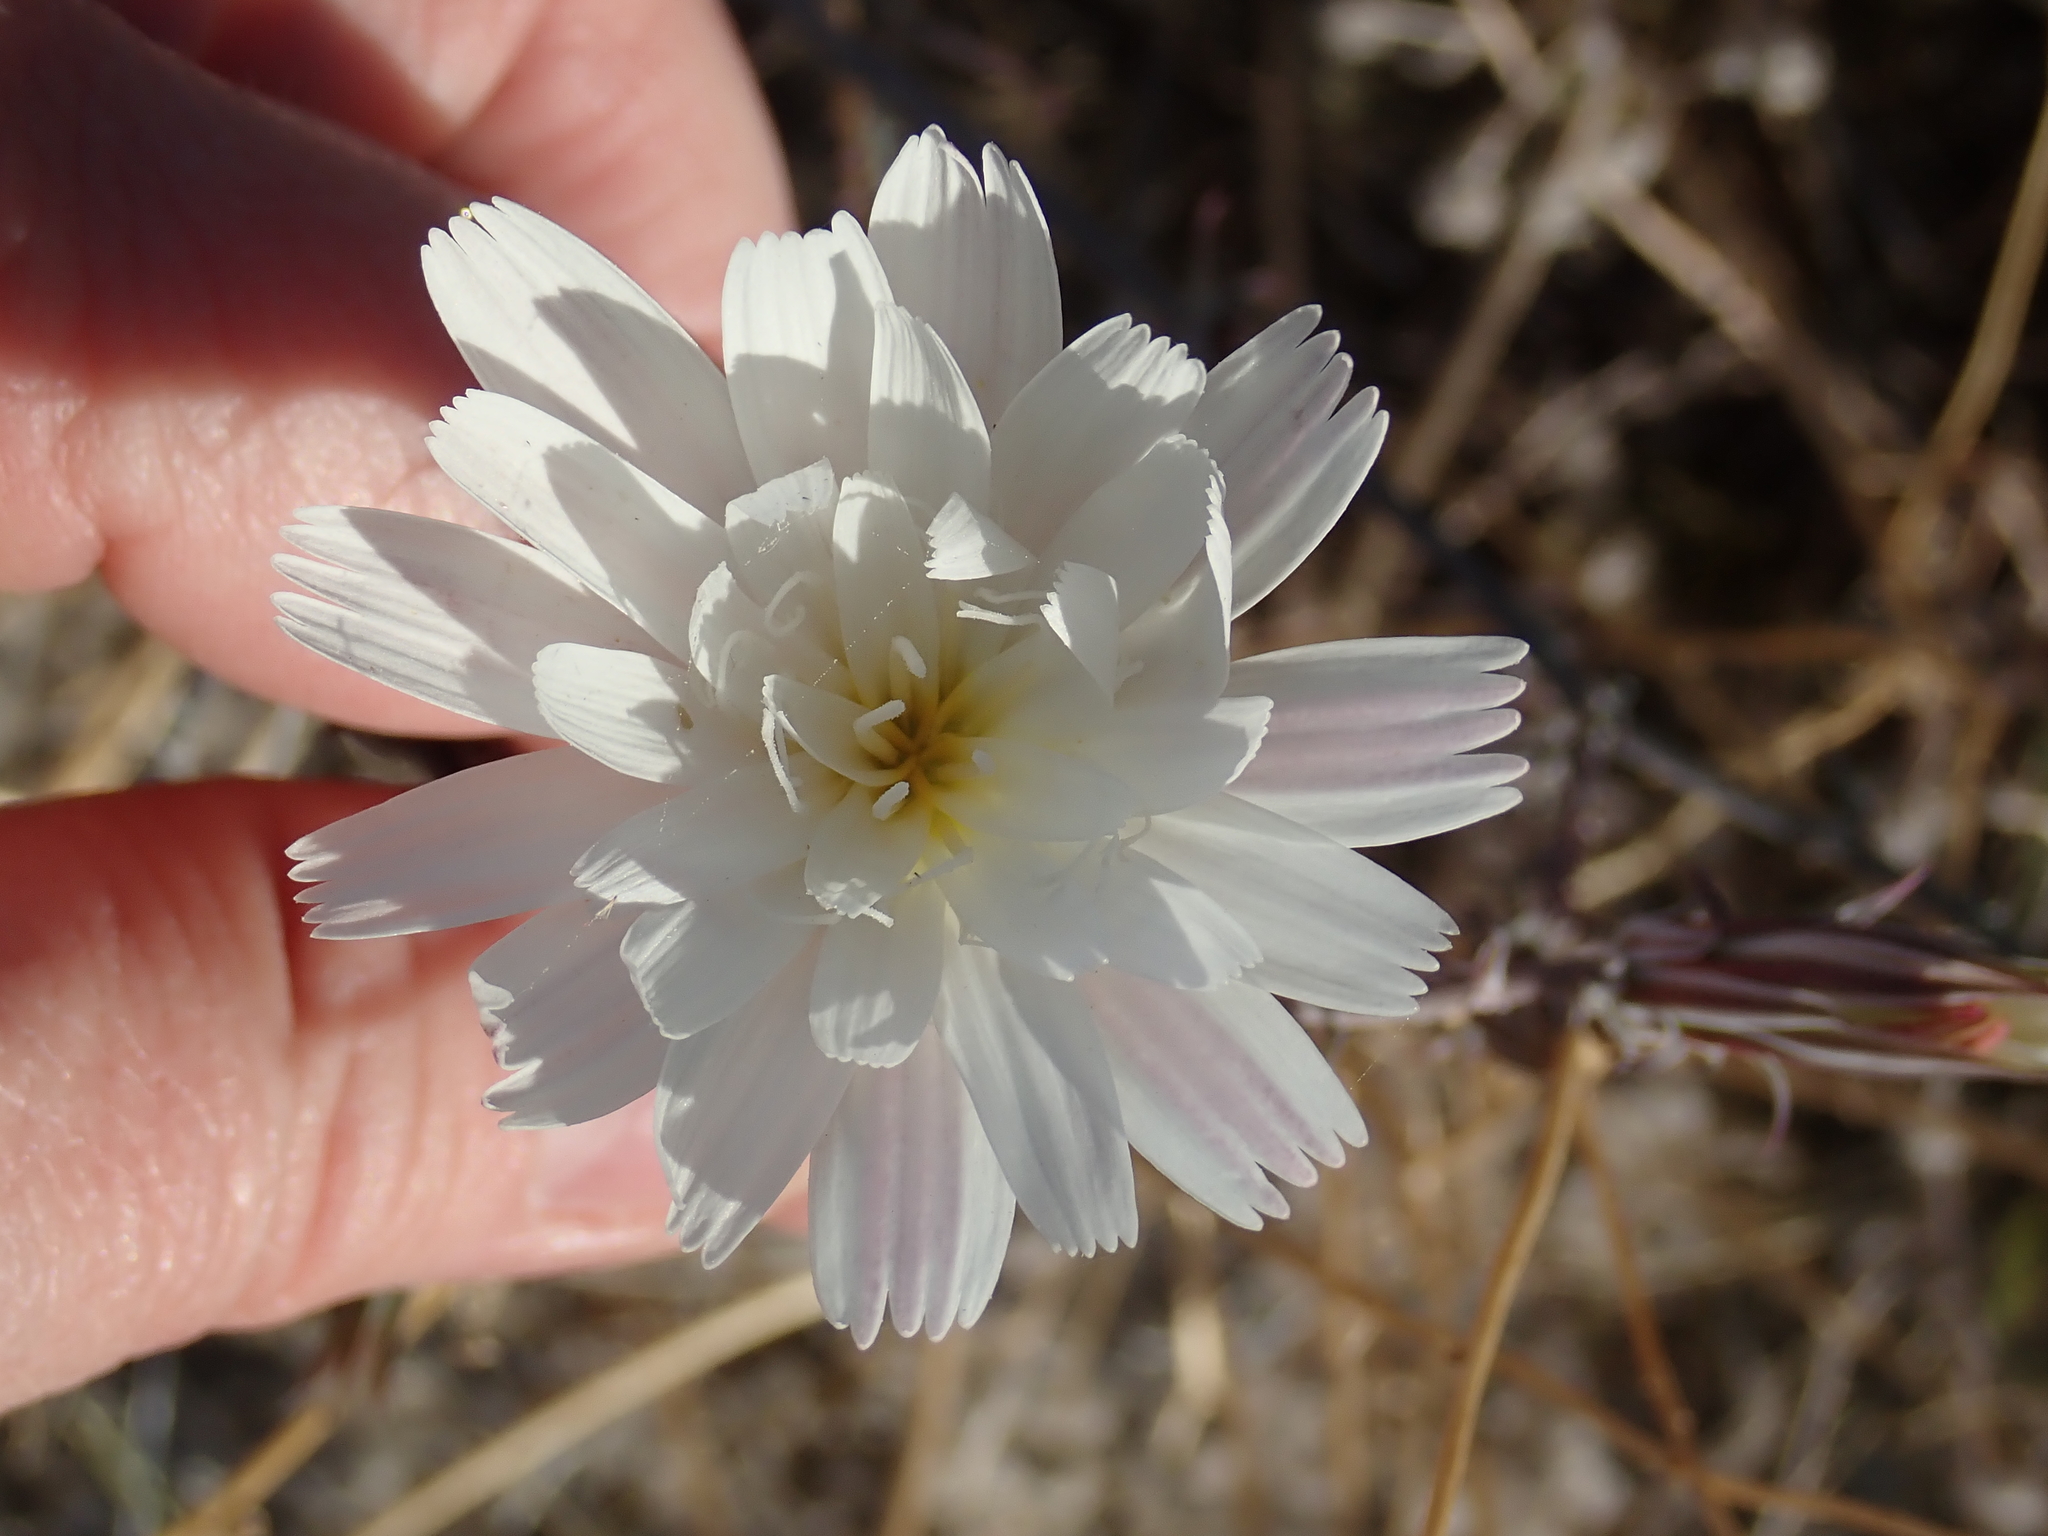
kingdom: Plantae
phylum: Tracheophyta
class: Magnoliopsida
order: Asterales
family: Asteraceae
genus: Rafinesquia
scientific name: Rafinesquia neomexicana
